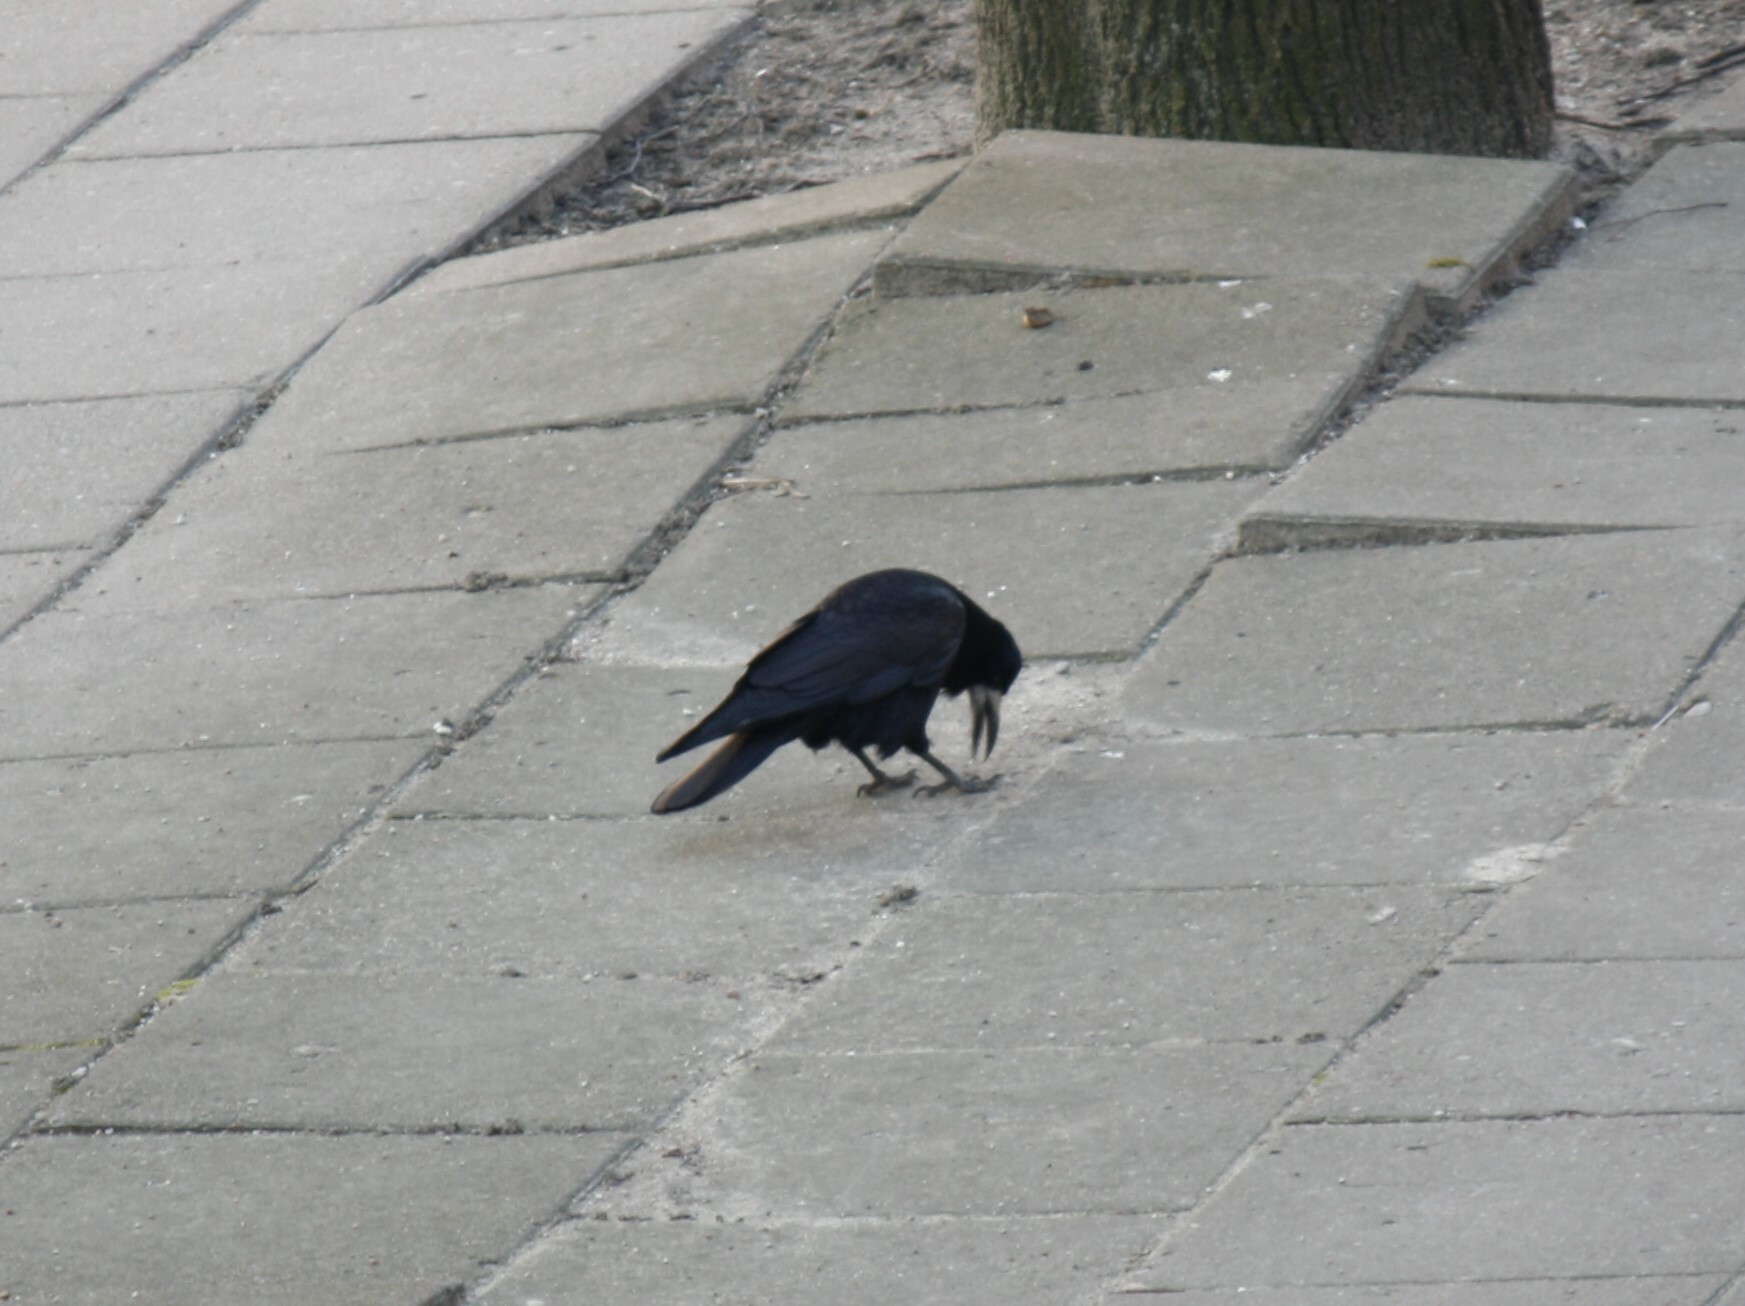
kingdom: Animalia
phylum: Chordata
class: Aves
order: Passeriformes
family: Corvidae
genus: Corvus
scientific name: Corvus frugilegus
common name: Rook
